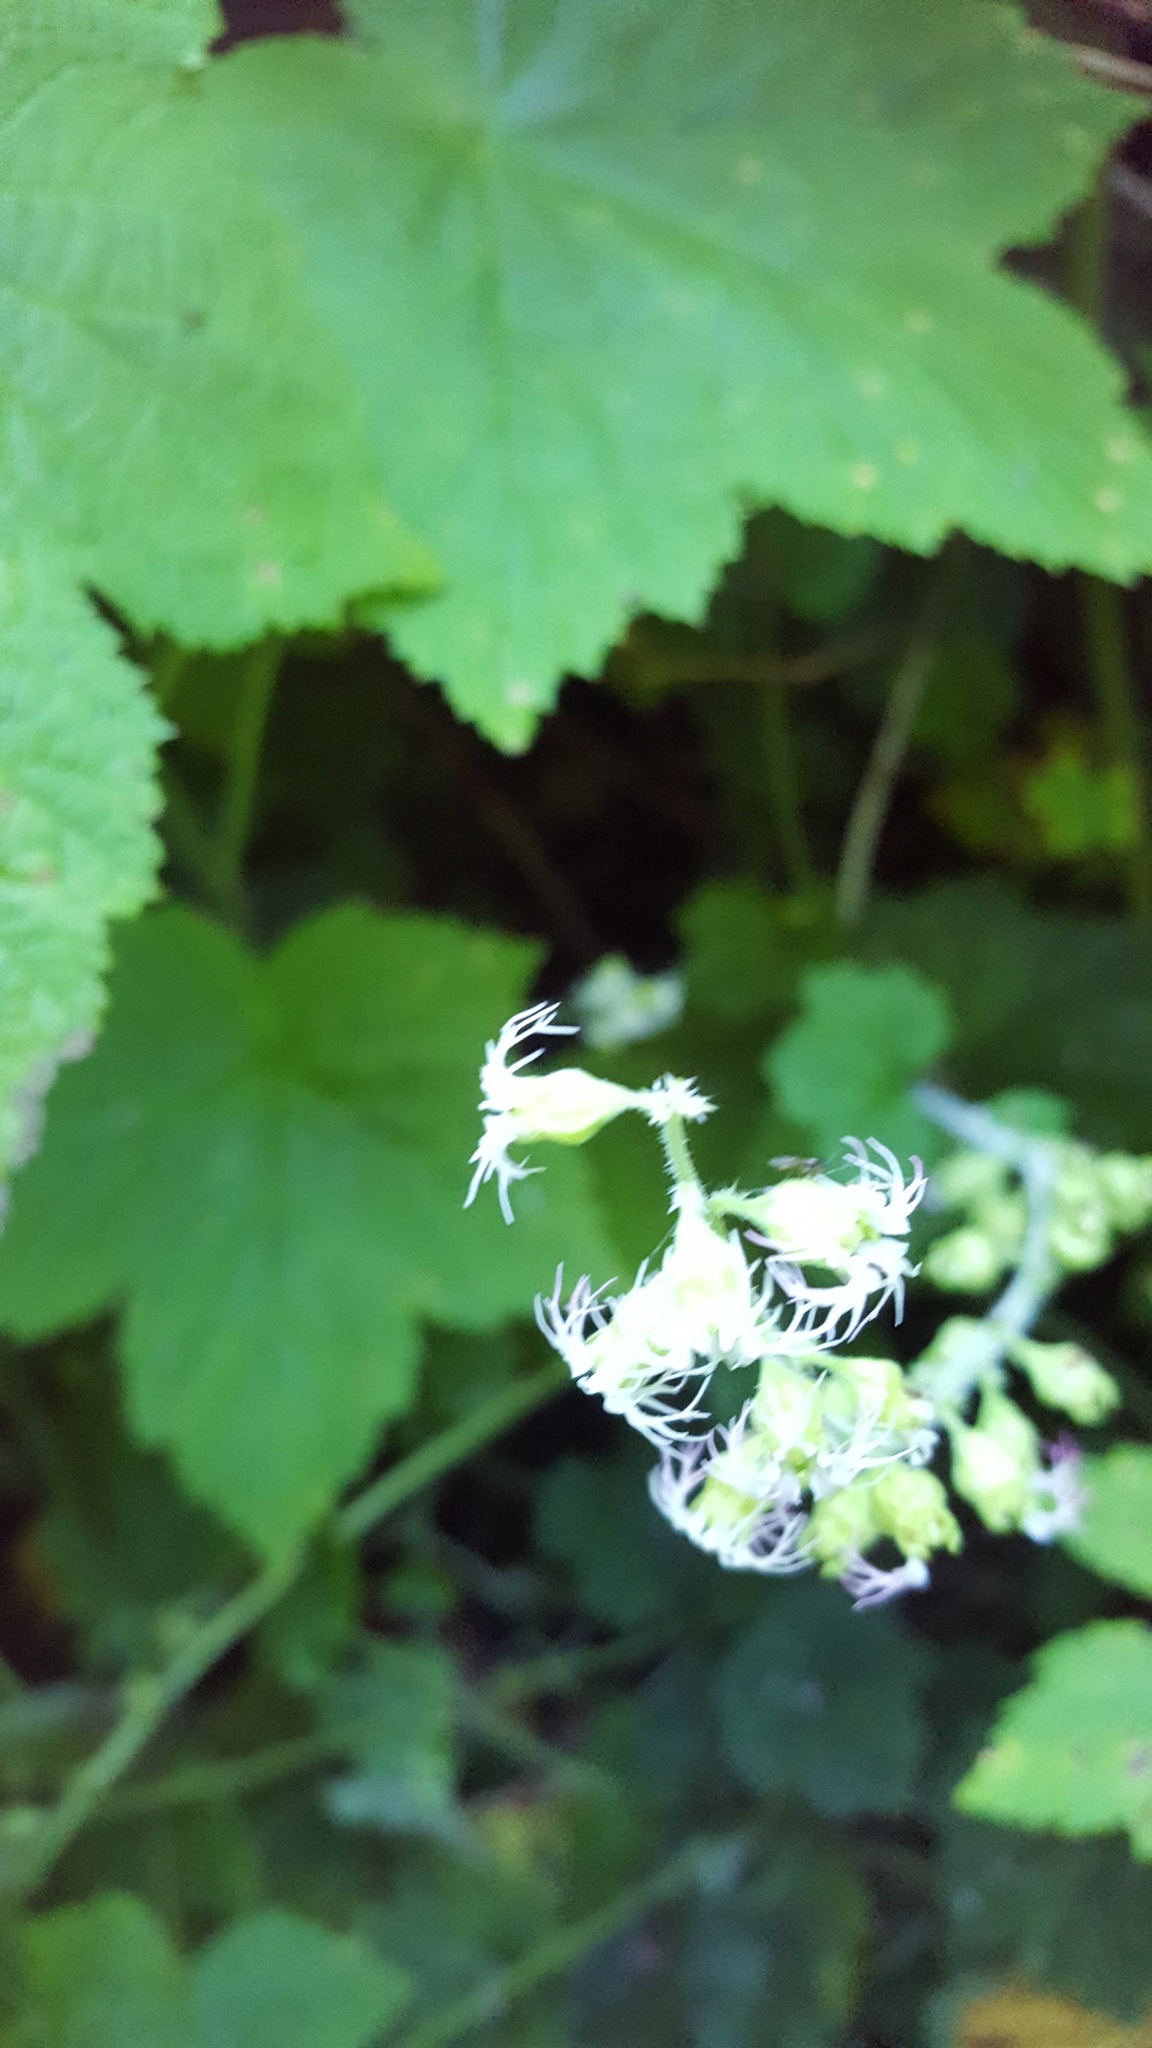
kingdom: Plantae
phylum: Tracheophyta
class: Magnoliopsida
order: Saxifragales
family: Saxifragaceae
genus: Tellima
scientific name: Tellima grandiflora
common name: Fringecups
